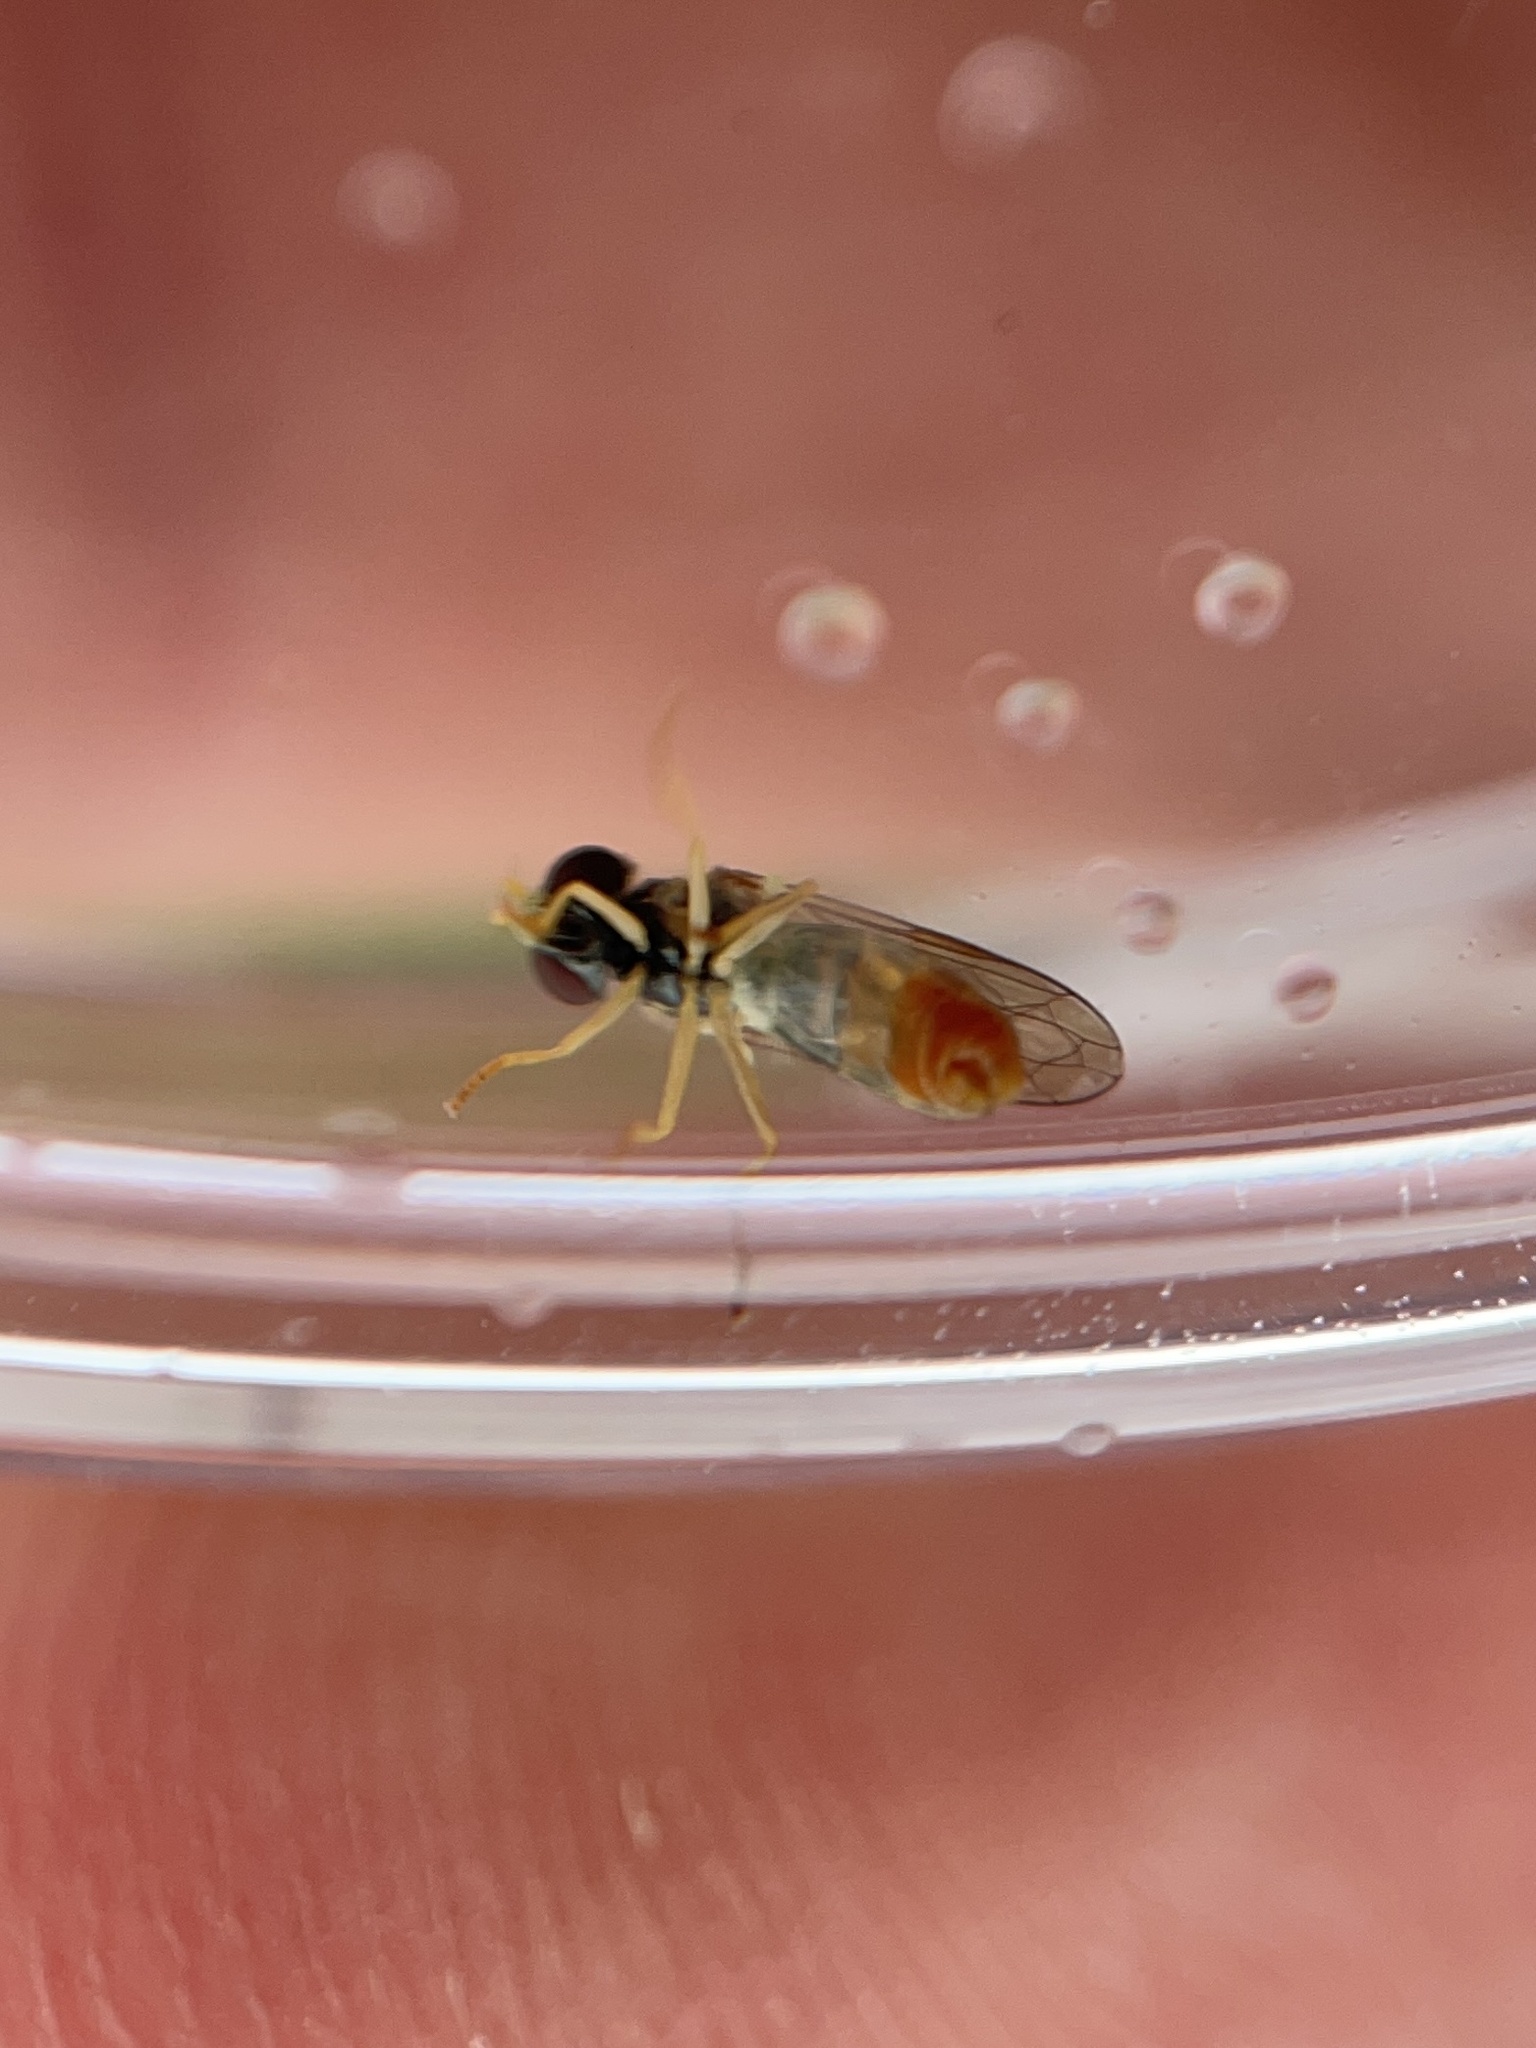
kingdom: Animalia
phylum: Arthropoda
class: Insecta
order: Diptera
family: Syrphidae
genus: Toxomerus
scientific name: Toxomerus marginatus
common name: Syrphid fly
